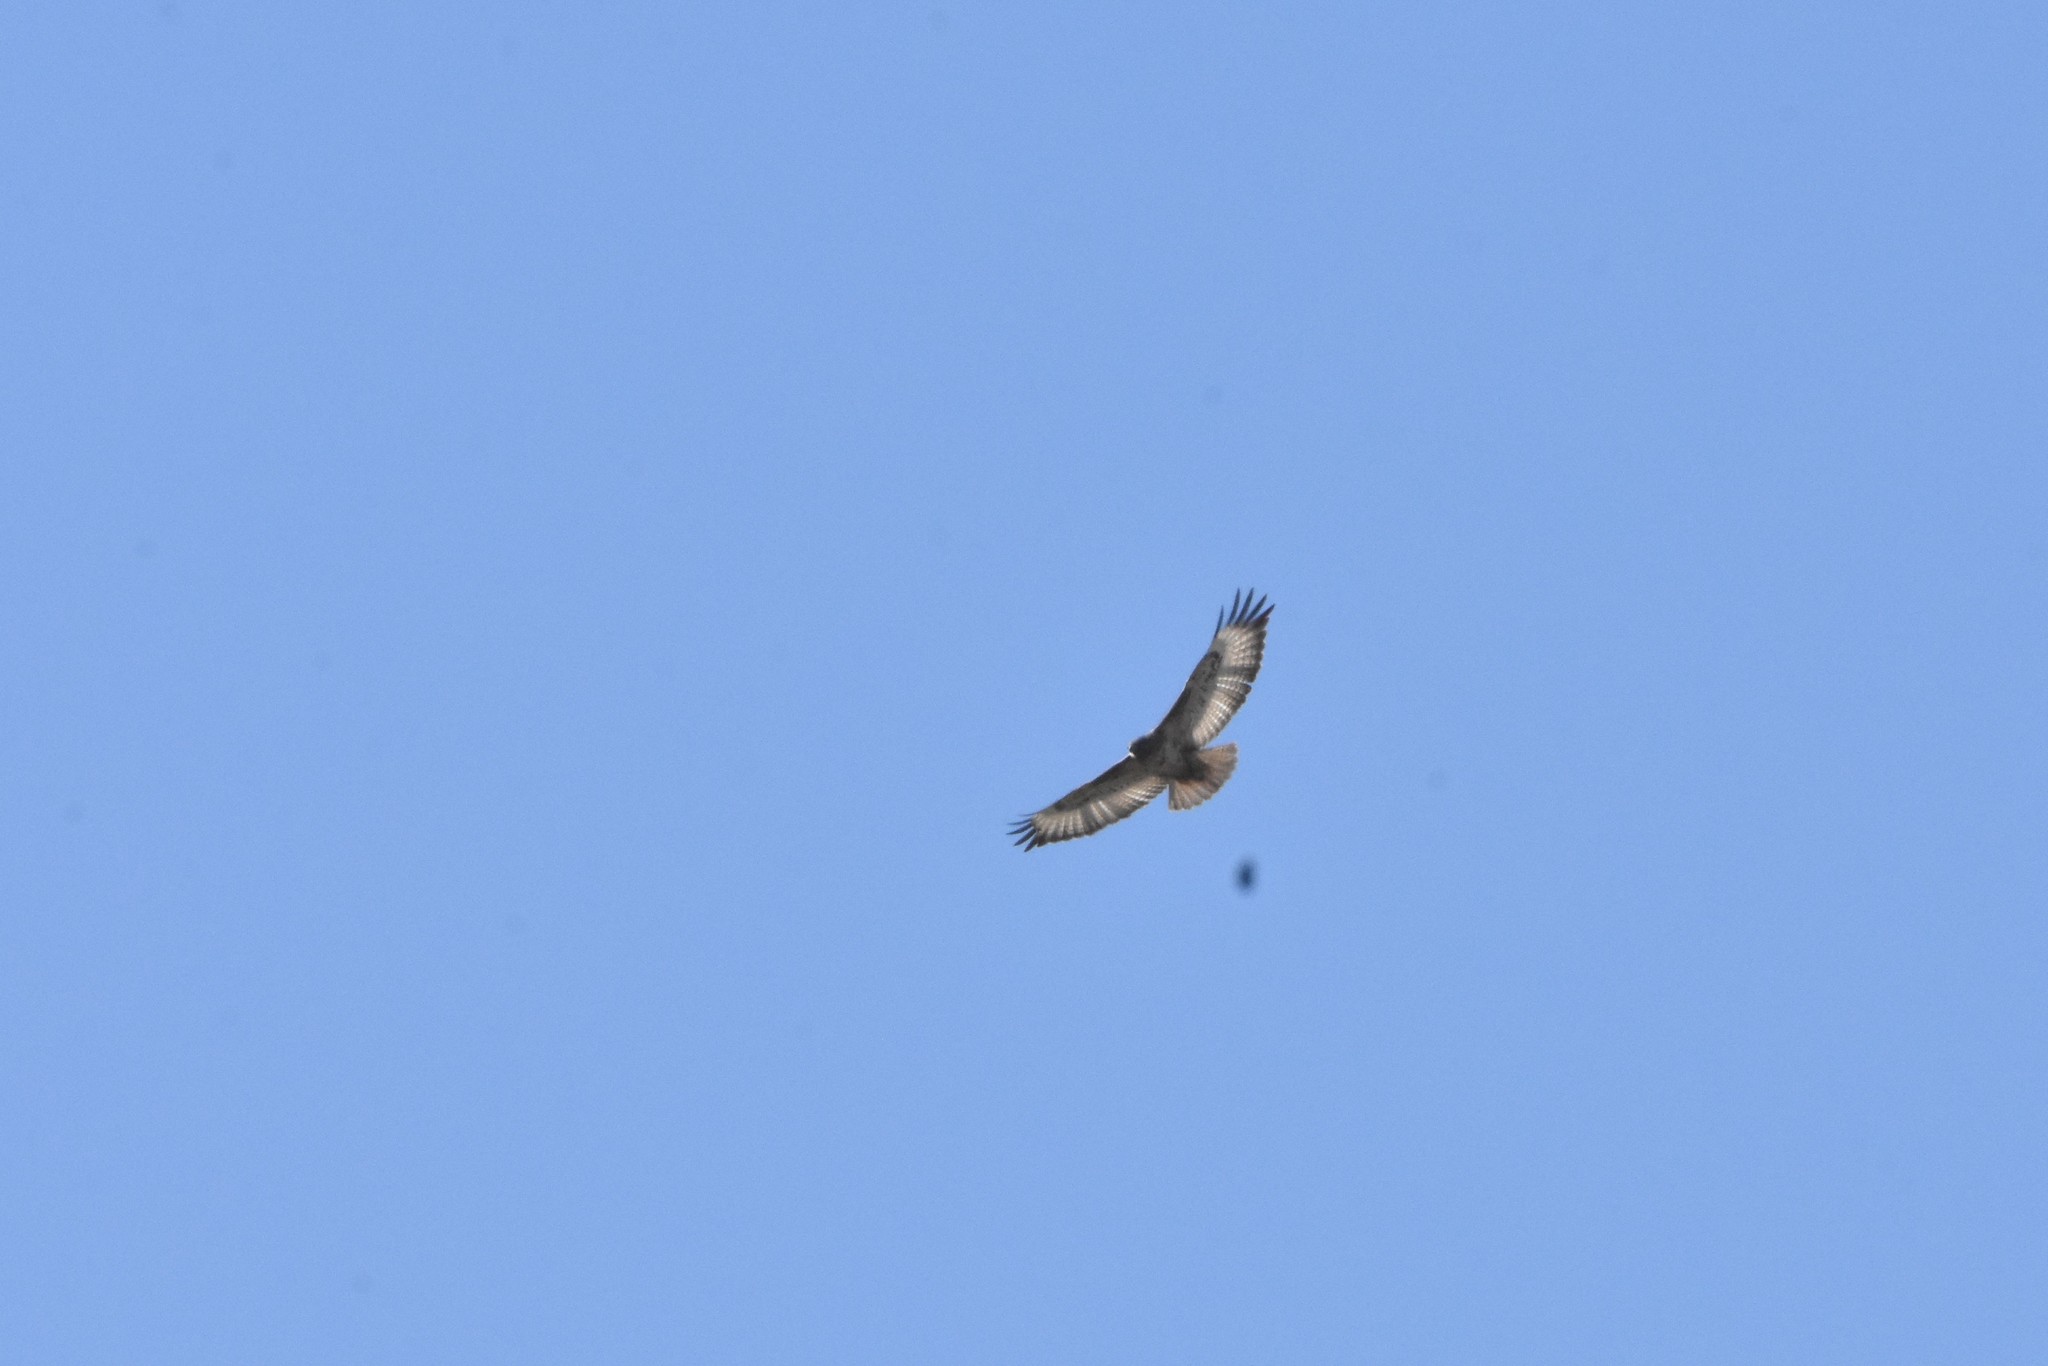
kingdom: Animalia
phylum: Chordata
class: Aves
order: Accipitriformes
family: Accipitridae
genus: Buteo
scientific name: Buteo trizonatus
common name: Forest buzzard
